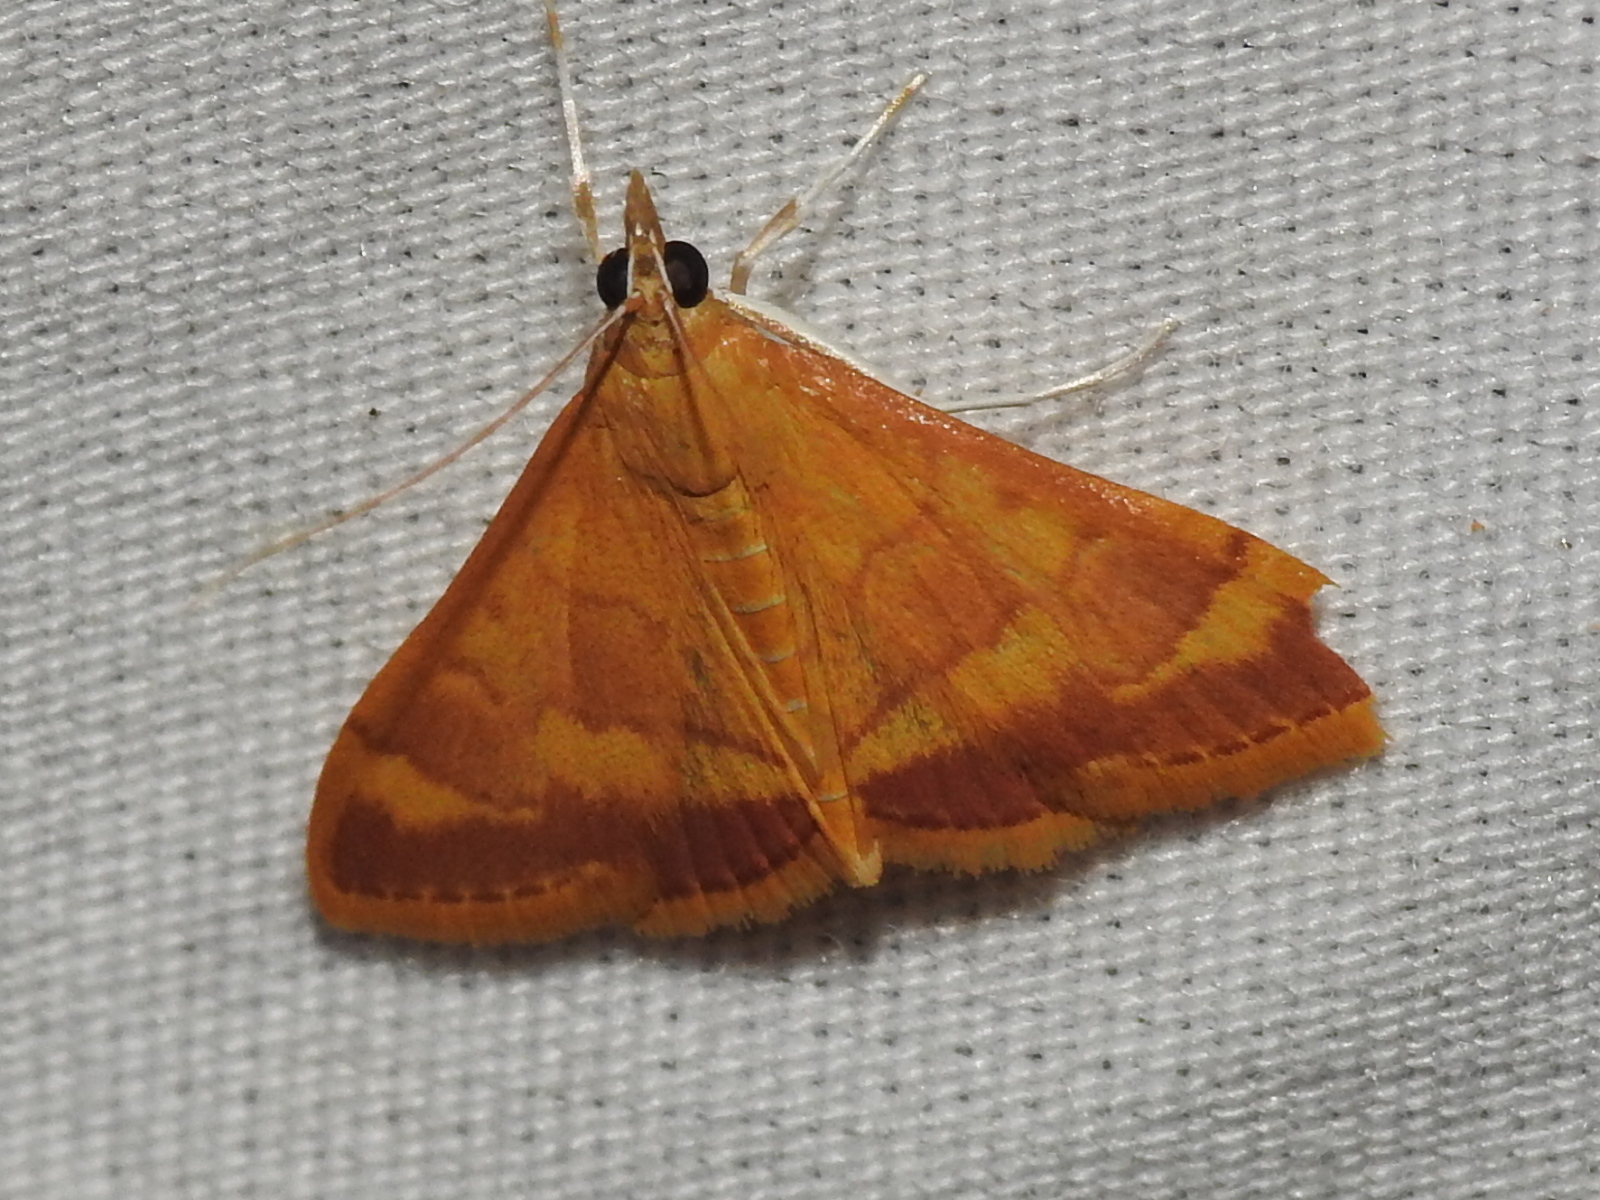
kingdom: Animalia
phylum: Arthropoda
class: Insecta
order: Lepidoptera
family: Crambidae
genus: Pyrausta
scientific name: Pyrausta pseudonythesalis
